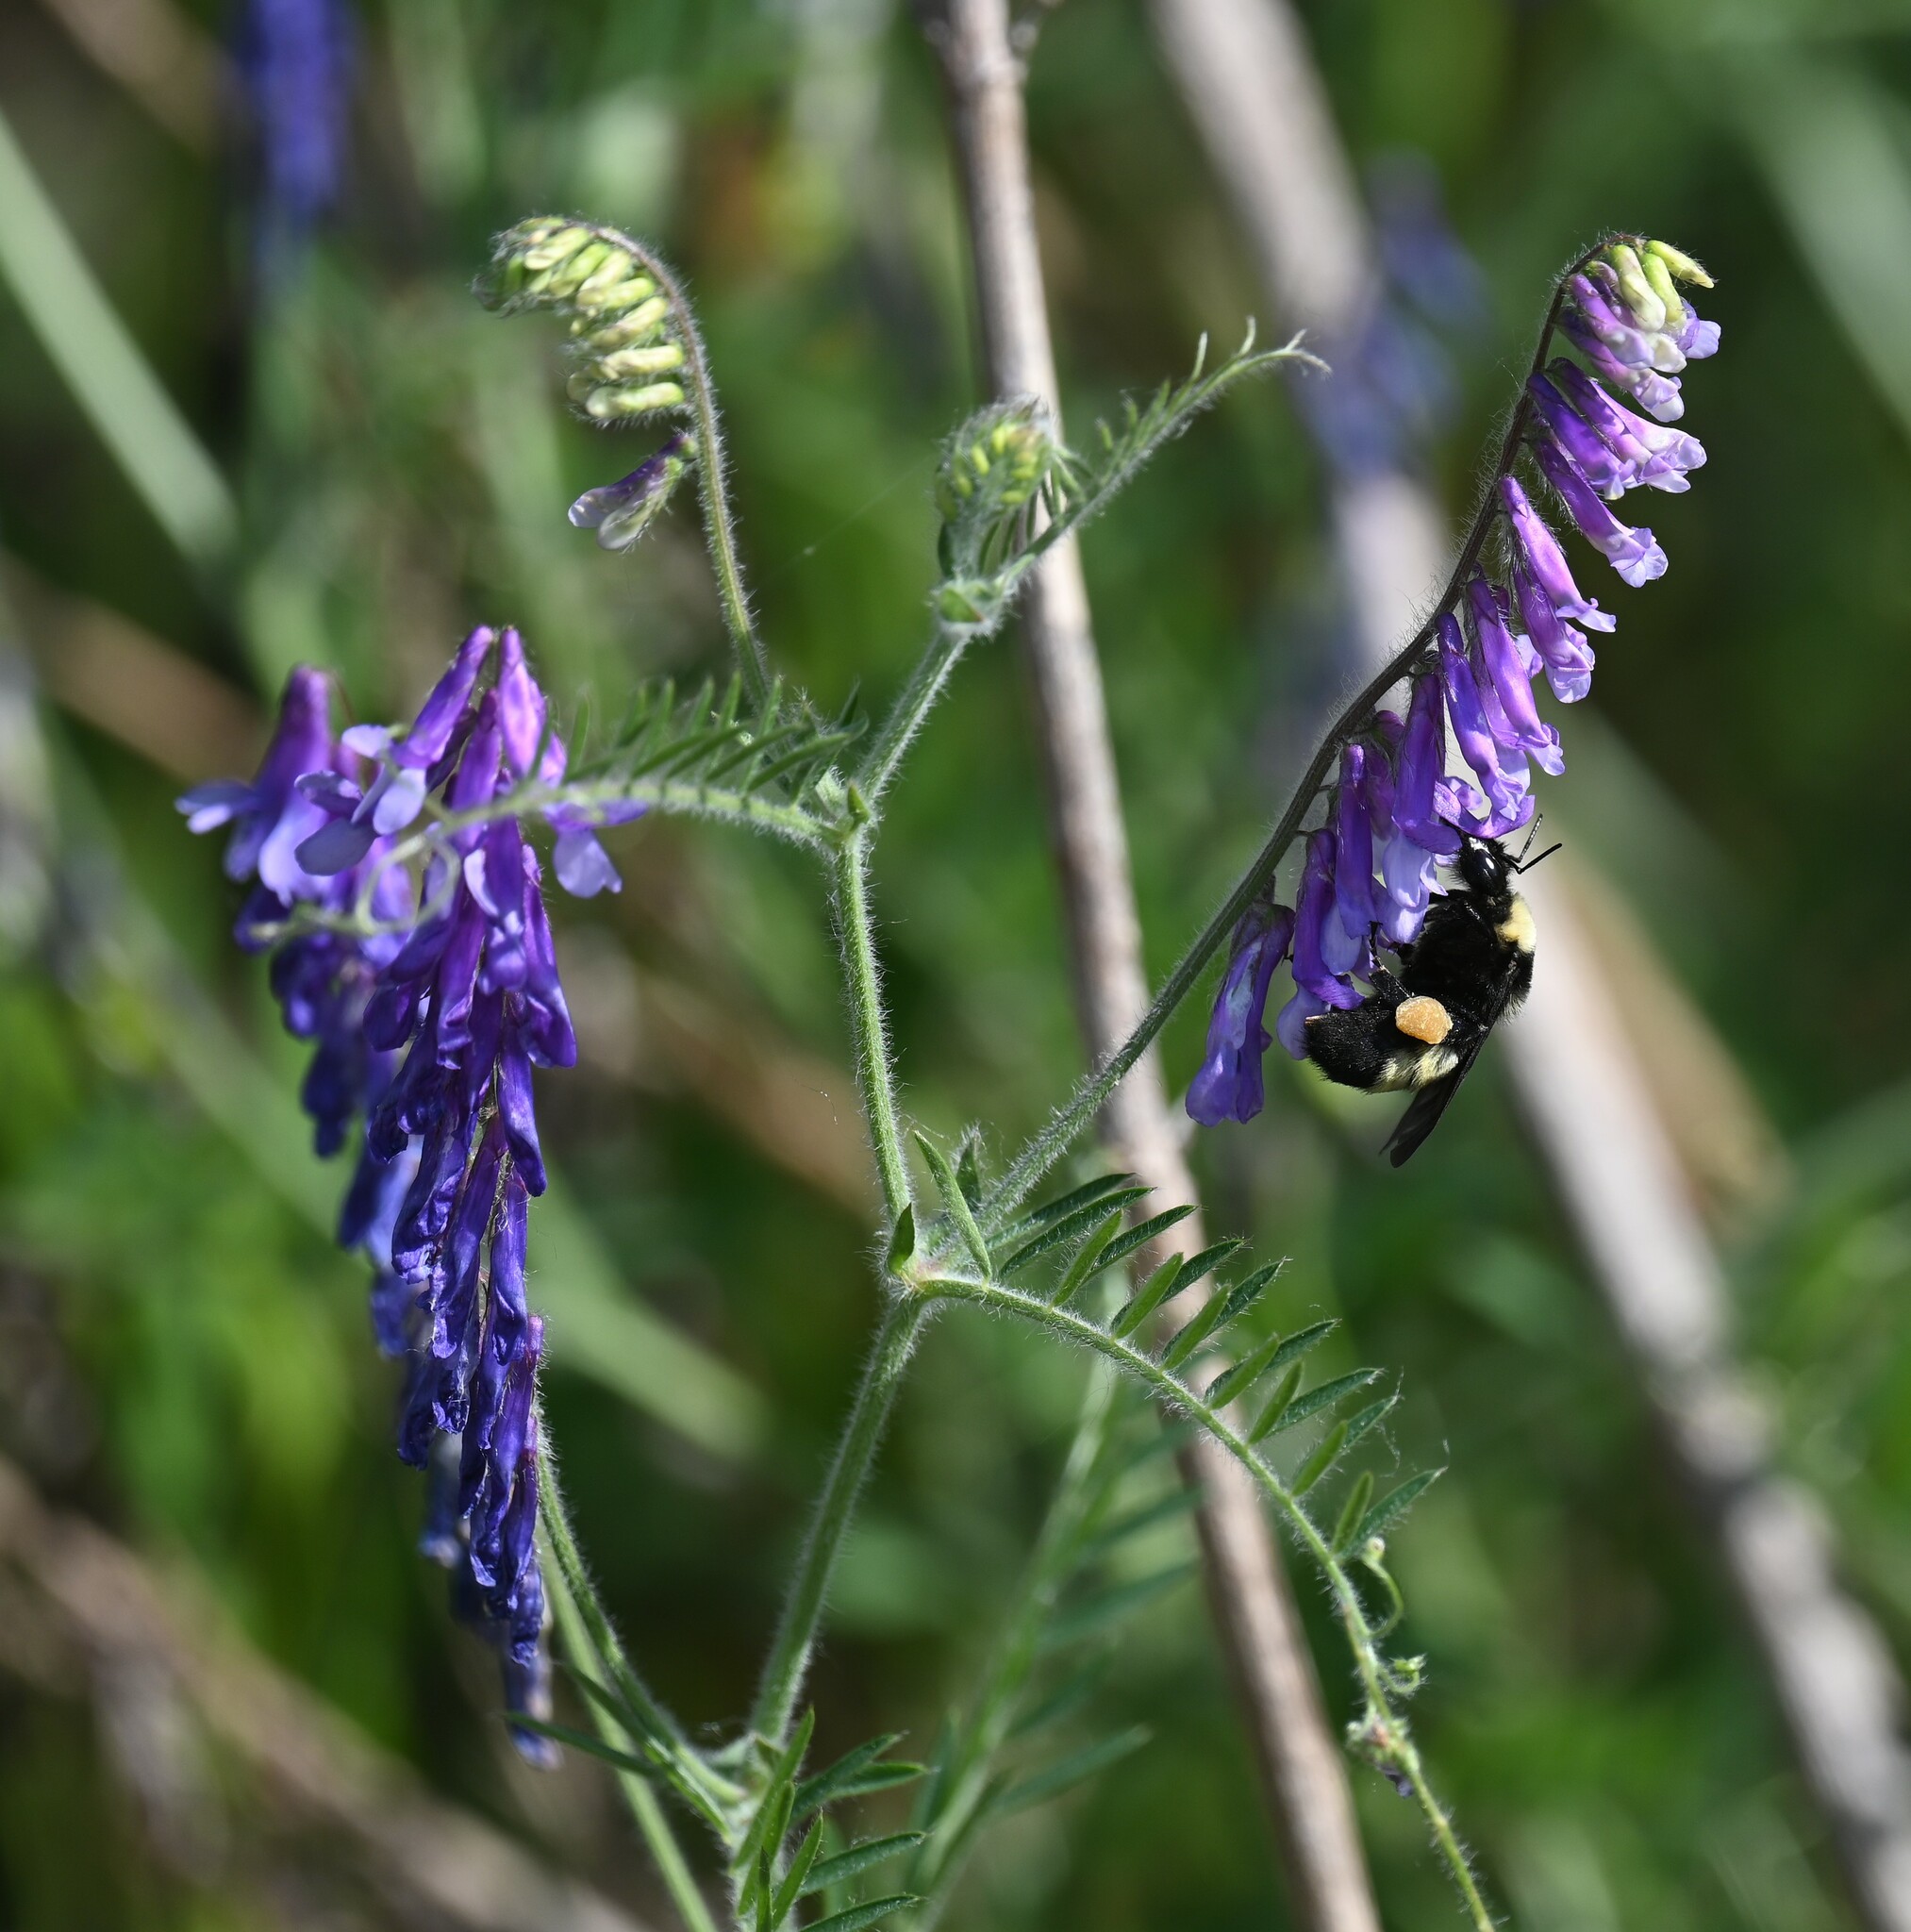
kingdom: Plantae
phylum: Tracheophyta
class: Magnoliopsida
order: Fabales
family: Fabaceae
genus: Vicia
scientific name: Vicia villosa
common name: Fodder vetch
